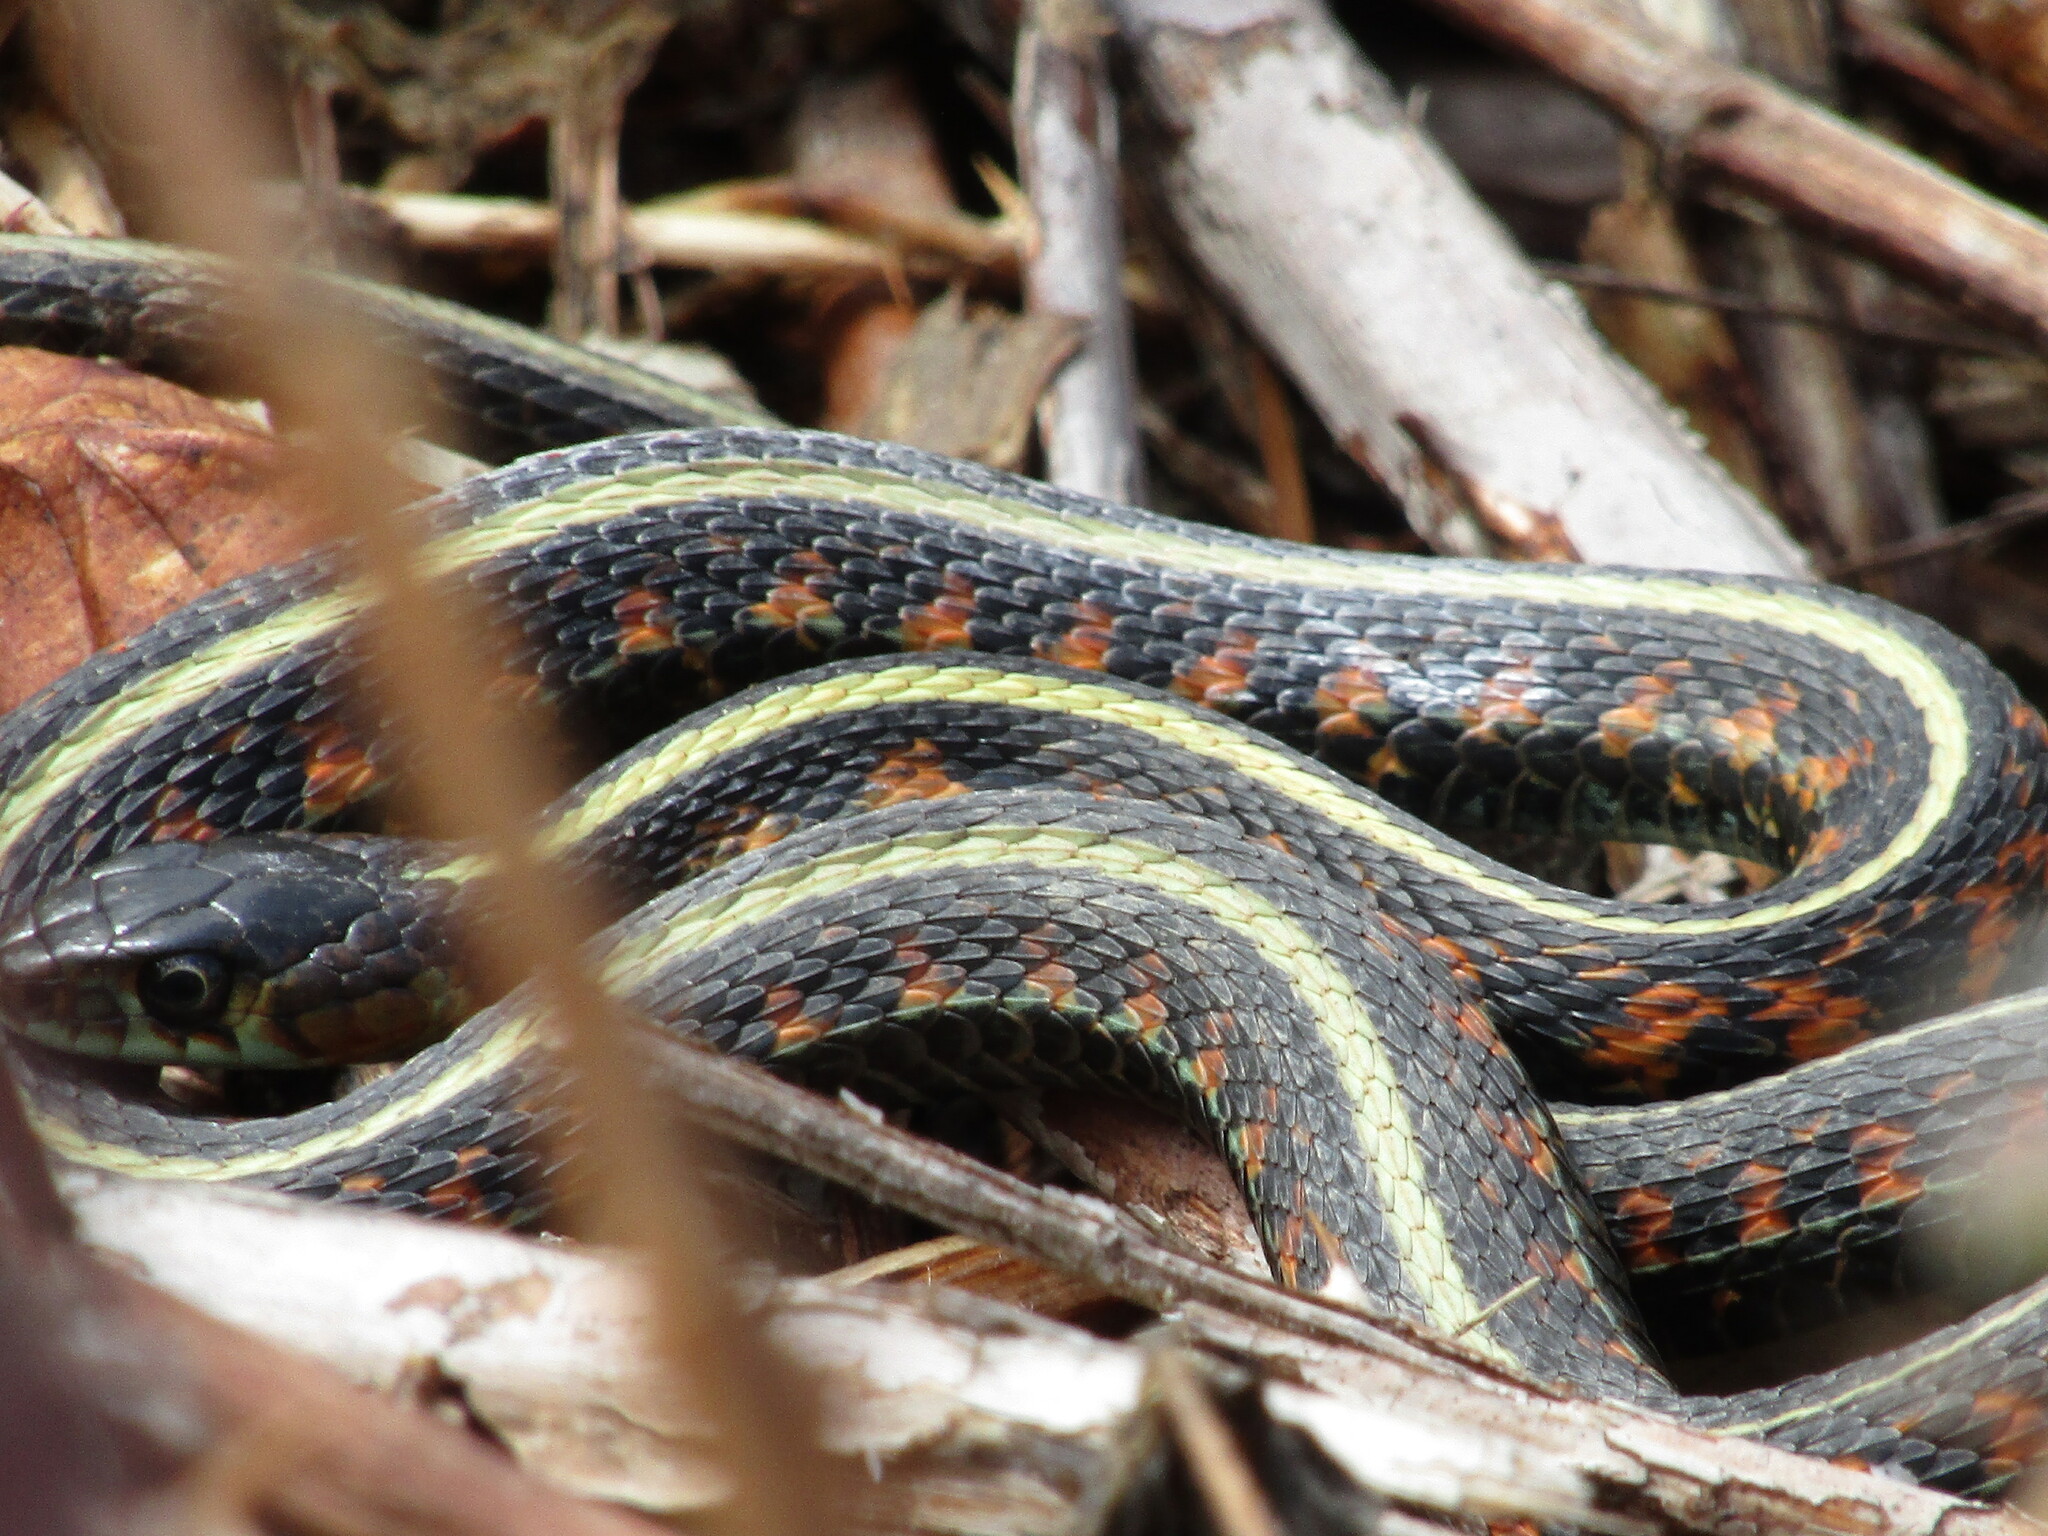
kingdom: Animalia
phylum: Chordata
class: Squamata
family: Colubridae
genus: Thamnophis
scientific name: Thamnophis sirtalis
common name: Common garter snake
